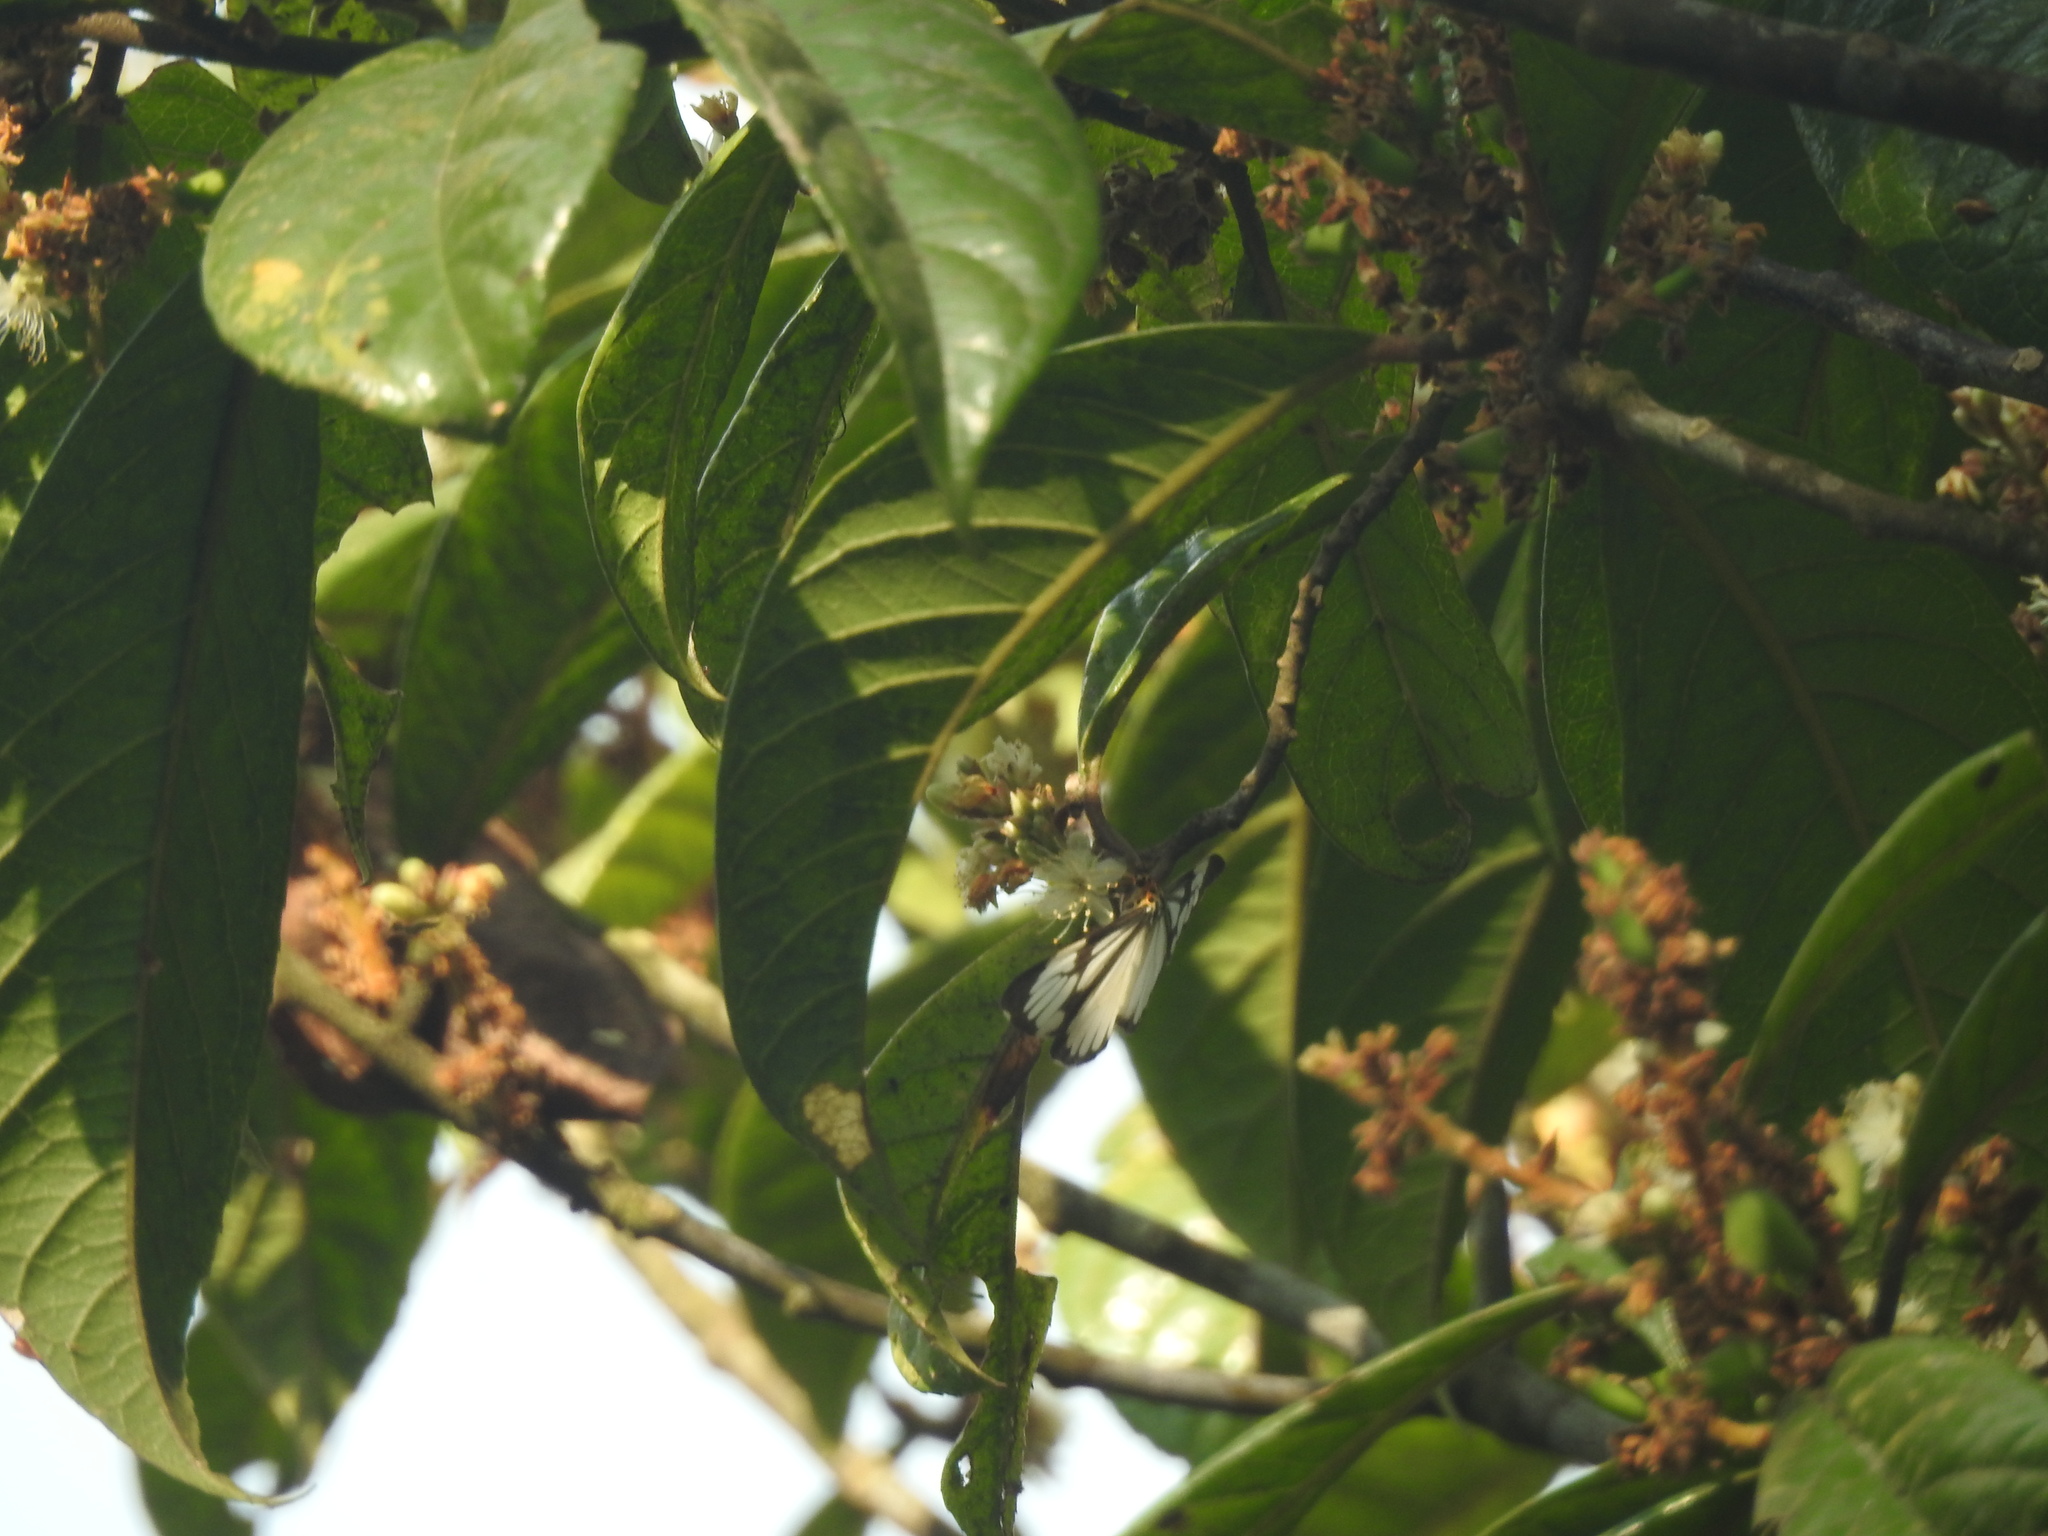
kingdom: Animalia
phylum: Arthropoda
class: Insecta
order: Lepidoptera
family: Erebidae
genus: Nyctemera
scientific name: Nyctemera coleta
